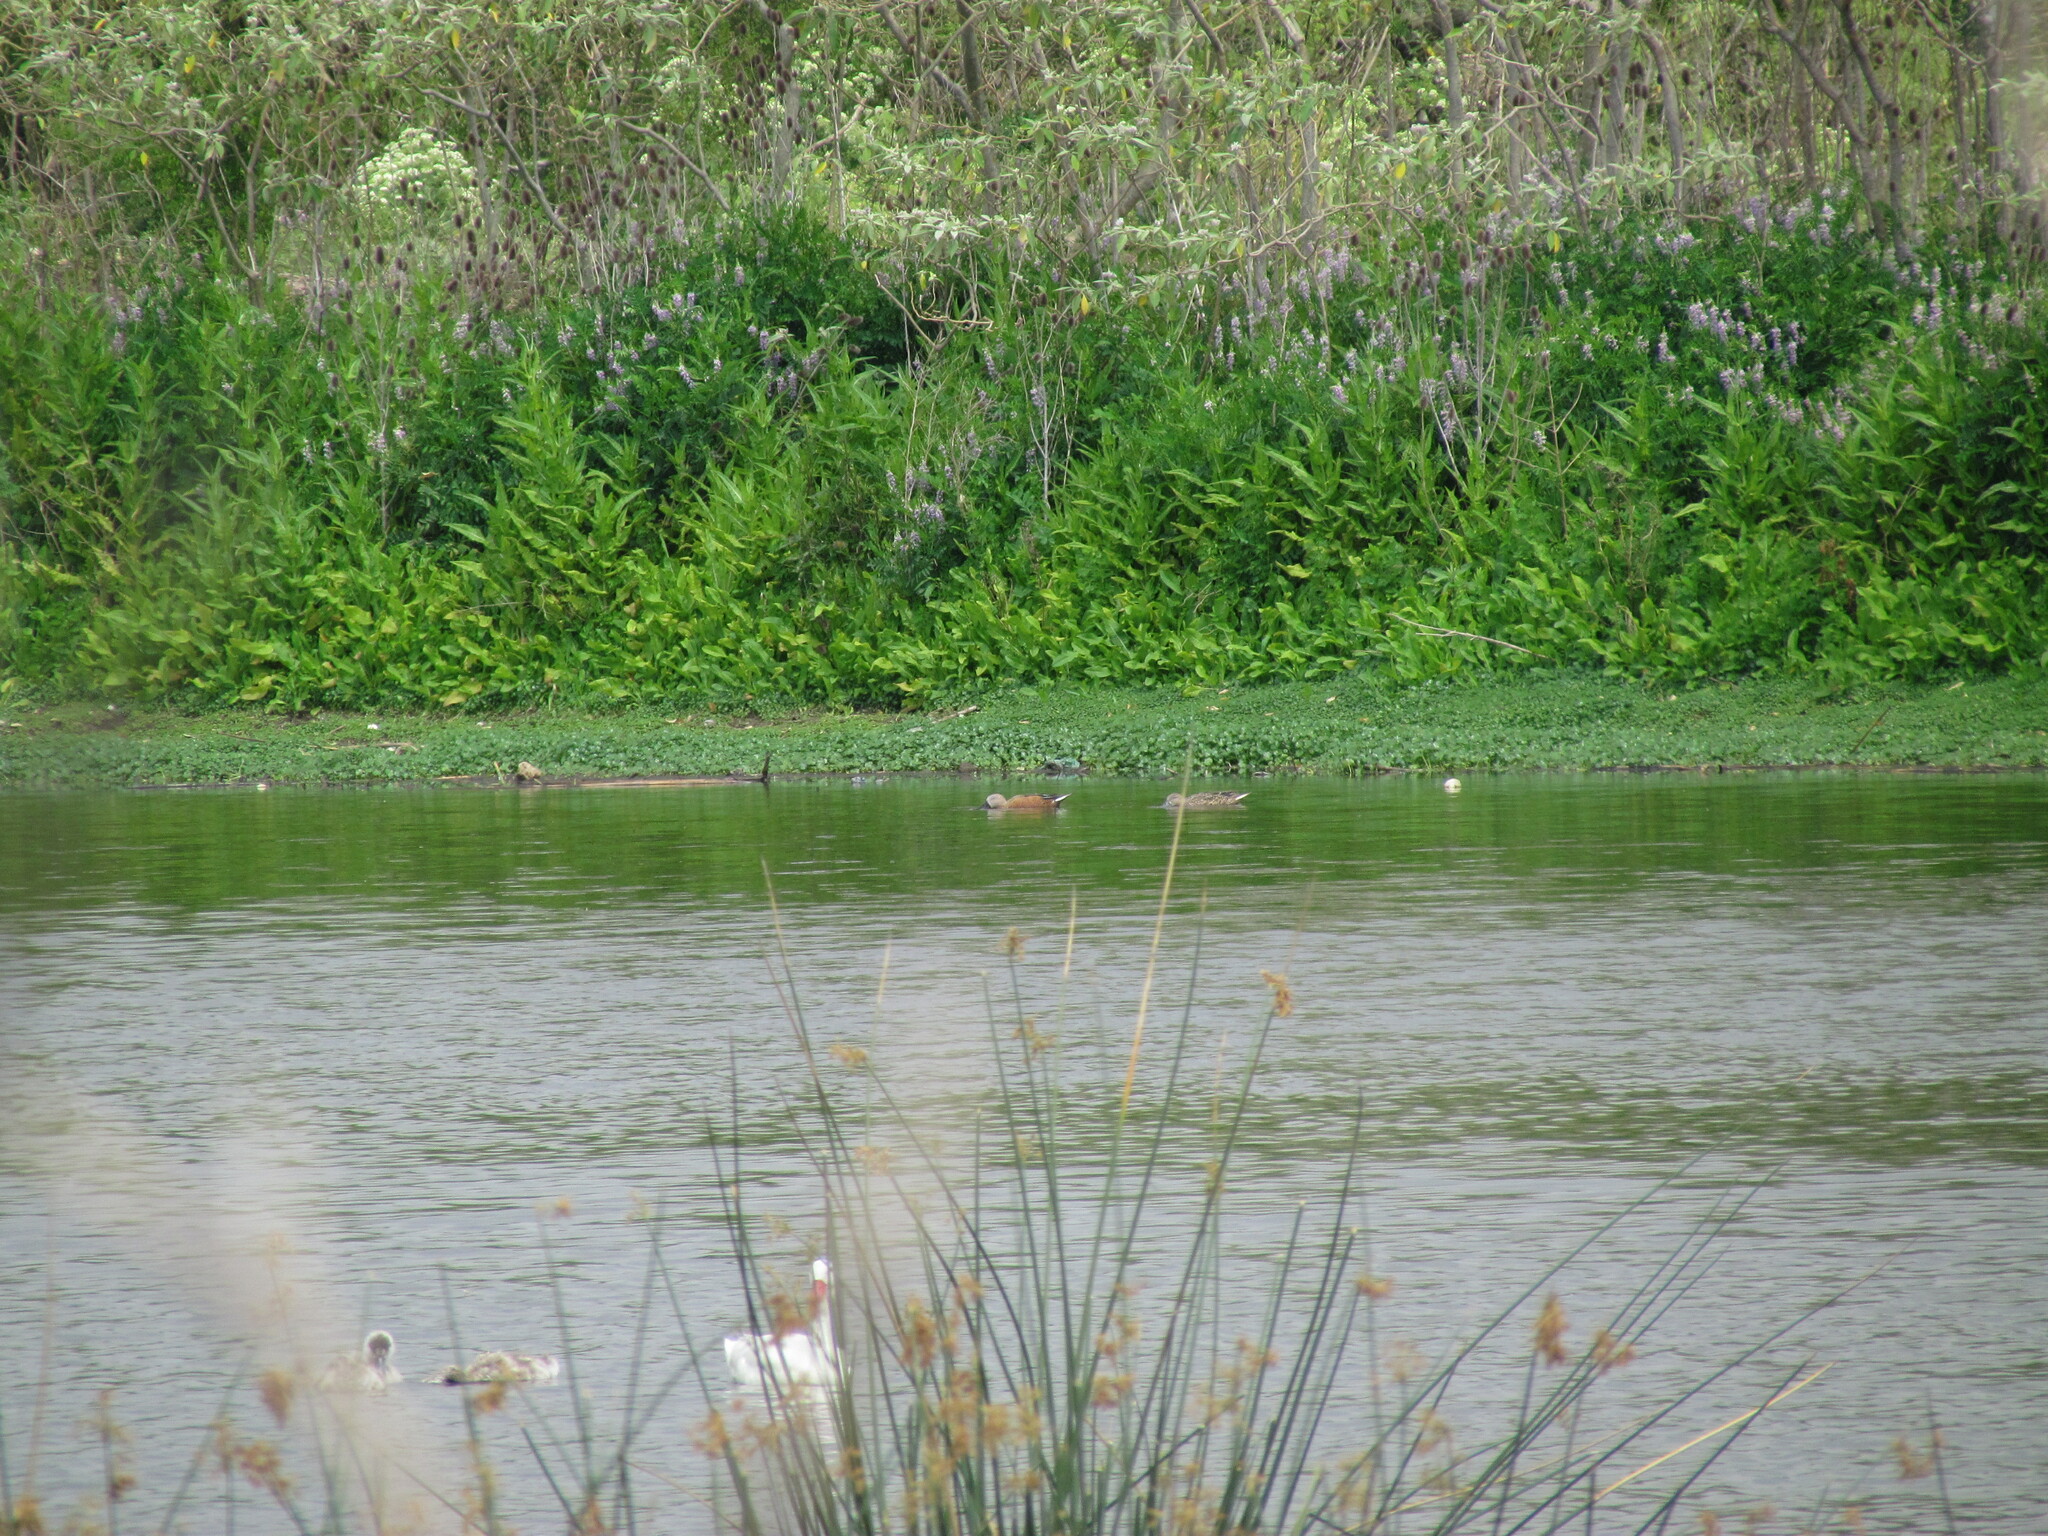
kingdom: Animalia
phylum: Chordata
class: Aves
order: Anseriformes
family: Anatidae
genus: Spatula
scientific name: Spatula platalea
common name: Red shoveler
